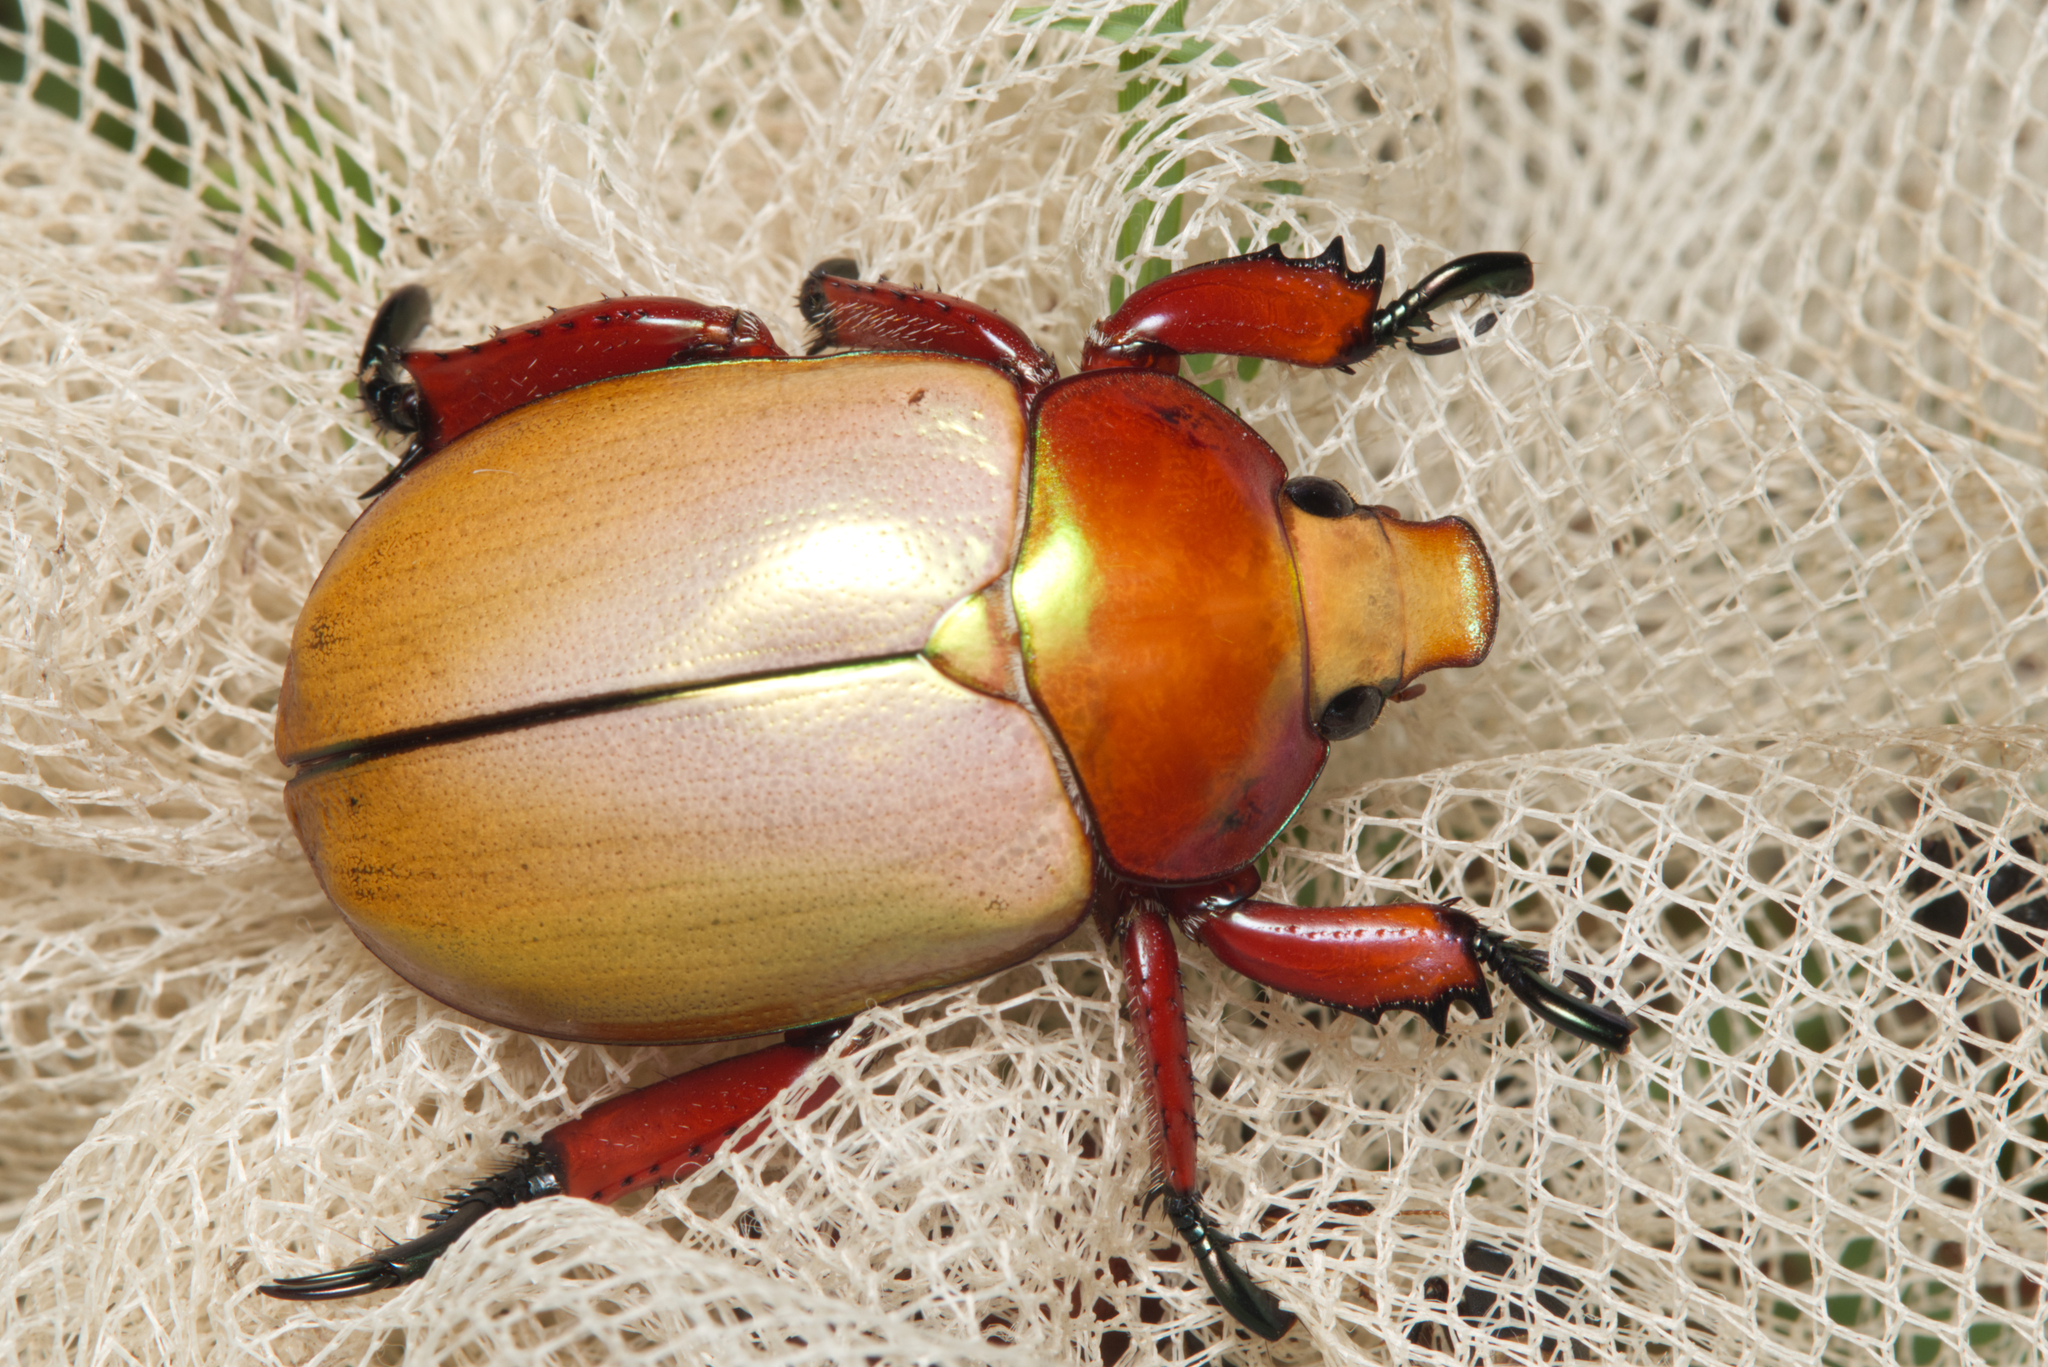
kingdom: Animalia
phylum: Arthropoda
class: Insecta
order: Coleoptera
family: Scarabaeidae
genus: Anoplognathus
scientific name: Anoplognathus montanus
